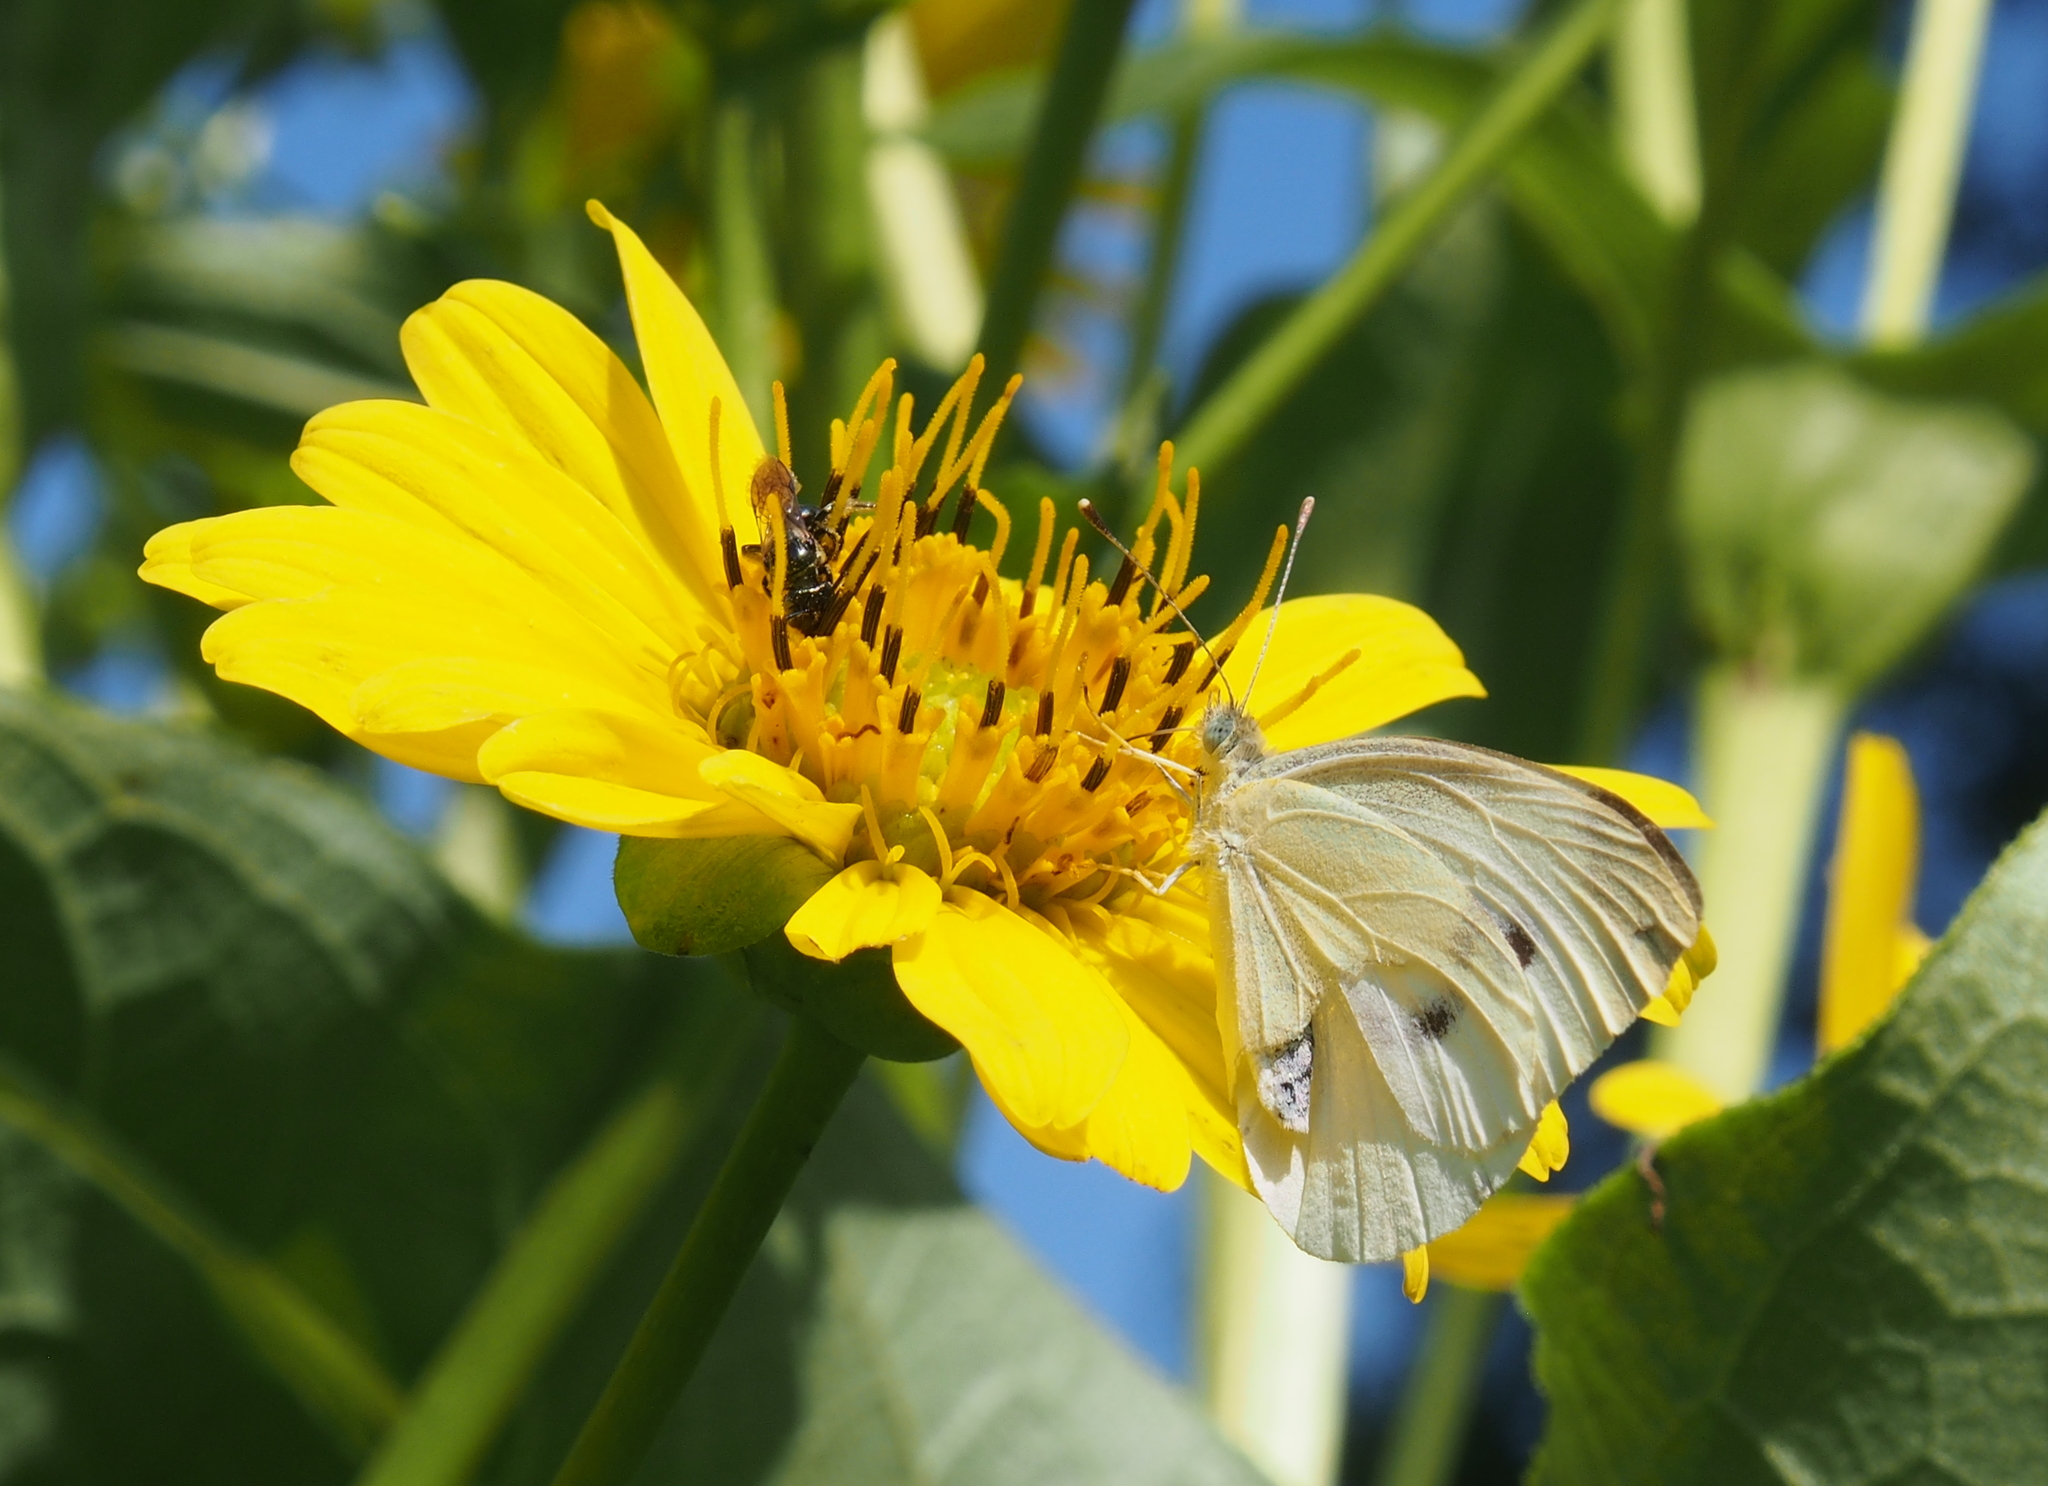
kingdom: Animalia
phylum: Arthropoda
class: Insecta
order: Lepidoptera
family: Pieridae
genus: Pieris
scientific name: Pieris rapae
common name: Small white
